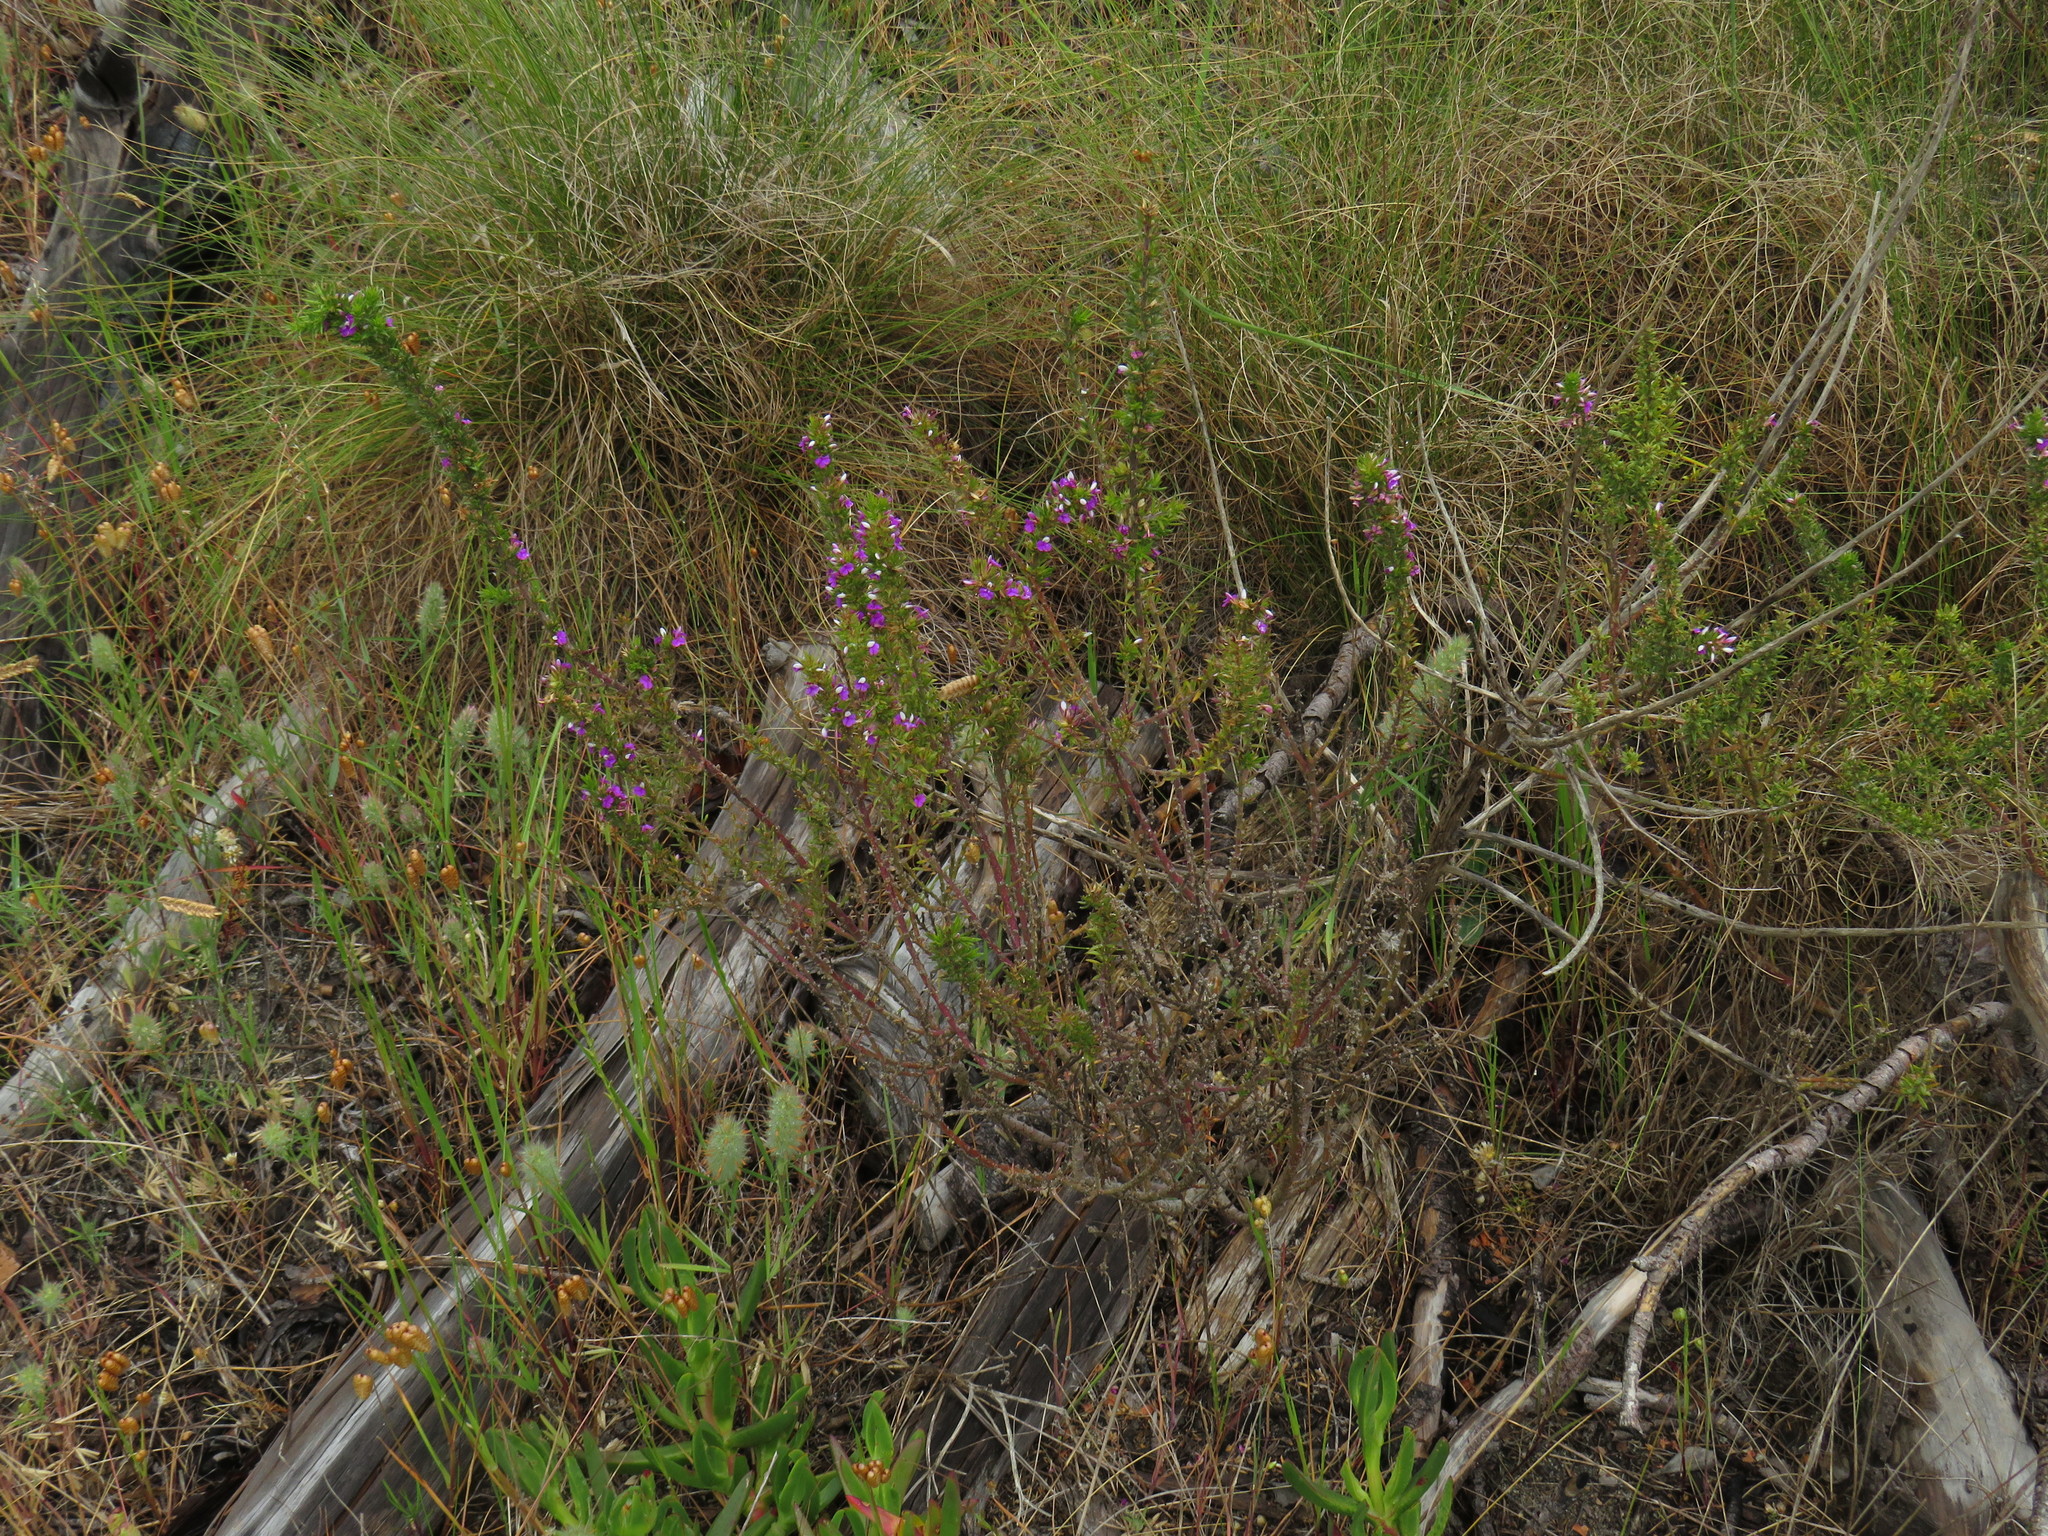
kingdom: Plantae
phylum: Tracheophyta
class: Magnoliopsida
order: Fabales
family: Polygalaceae
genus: Muraltia
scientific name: Muraltia heisteria
